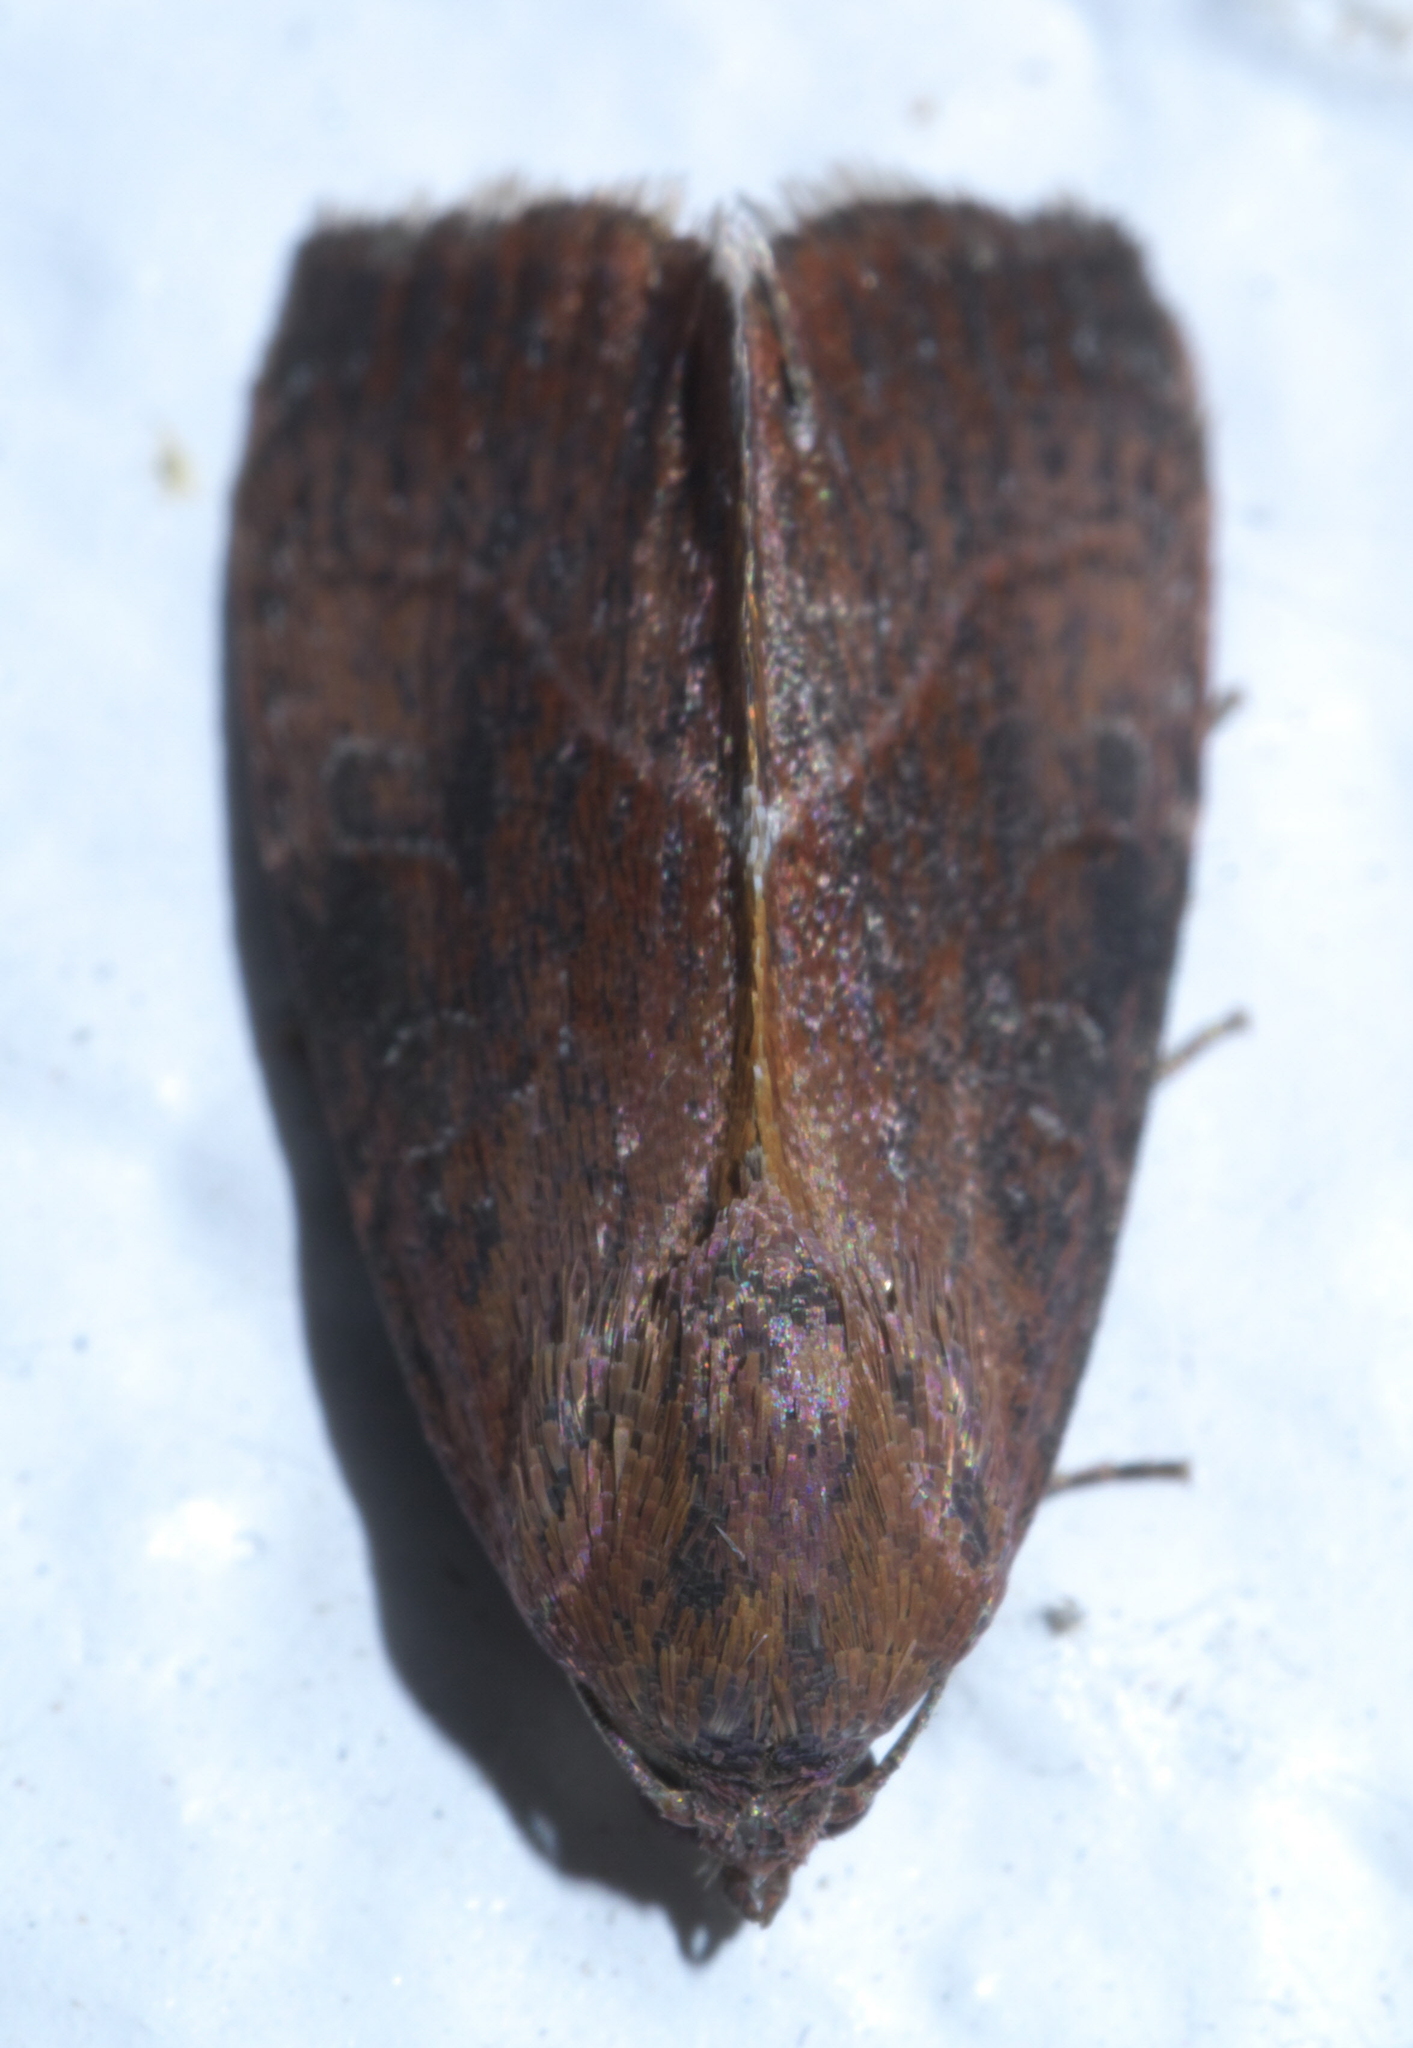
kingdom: Animalia
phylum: Arthropoda
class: Insecta
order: Lepidoptera
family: Noctuidae
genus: Galgula
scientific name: Galgula partita
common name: Wedgeling
